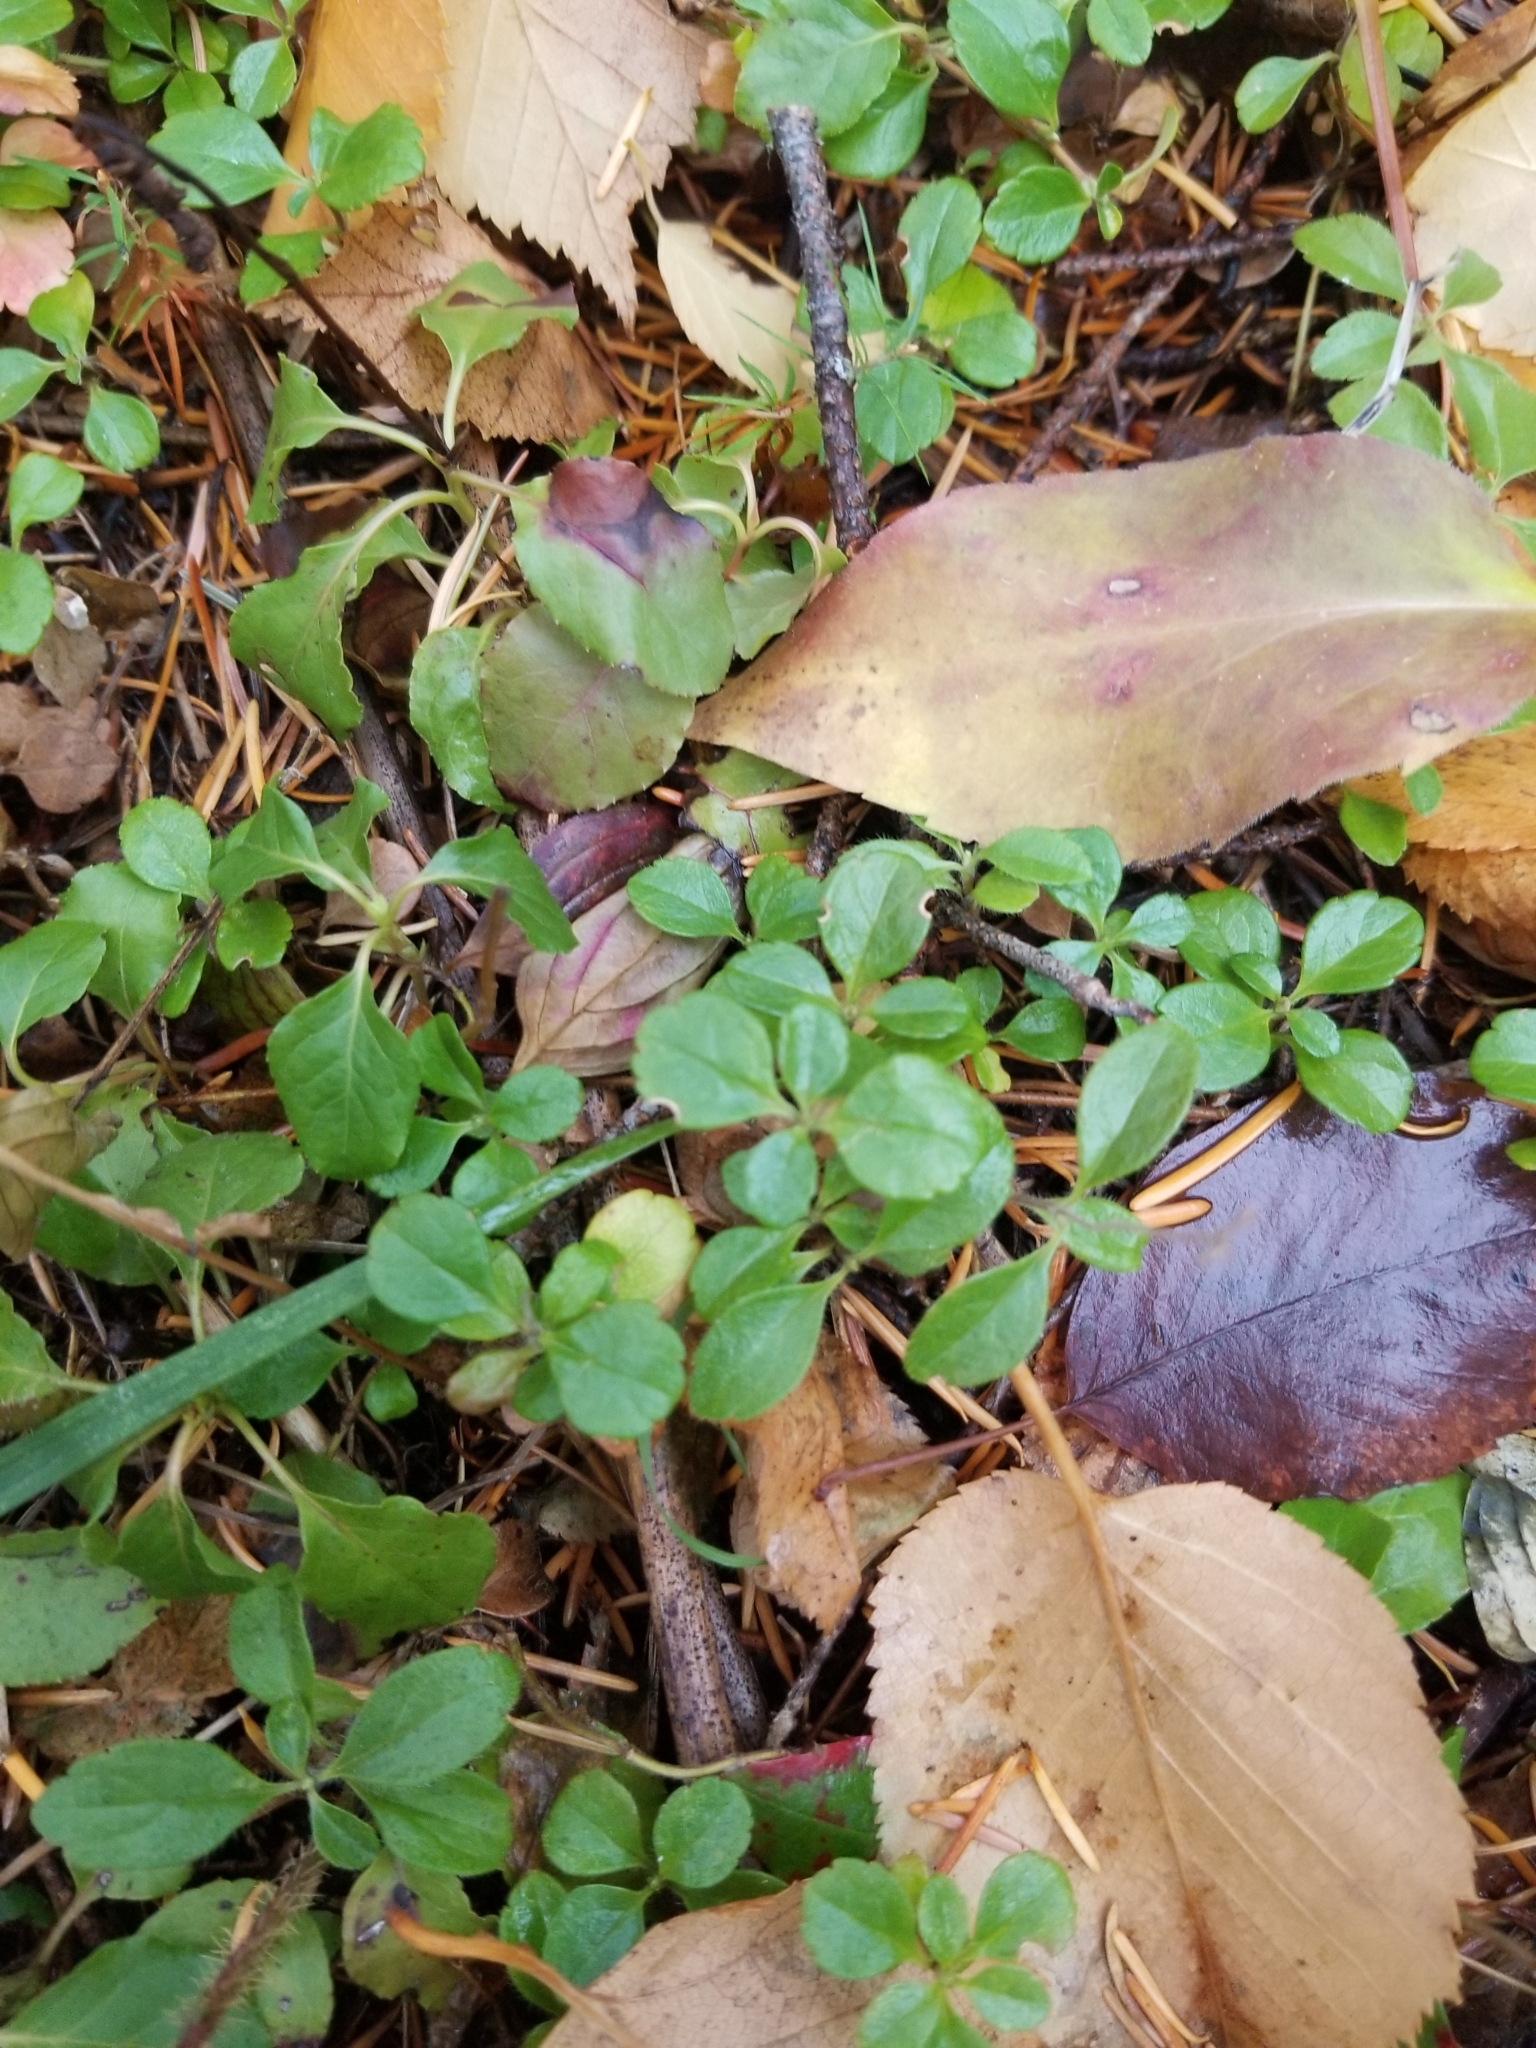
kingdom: Plantae
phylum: Tracheophyta
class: Magnoliopsida
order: Dipsacales
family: Caprifoliaceae
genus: Linnaea
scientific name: Linnaea borealis
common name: Twinflower
